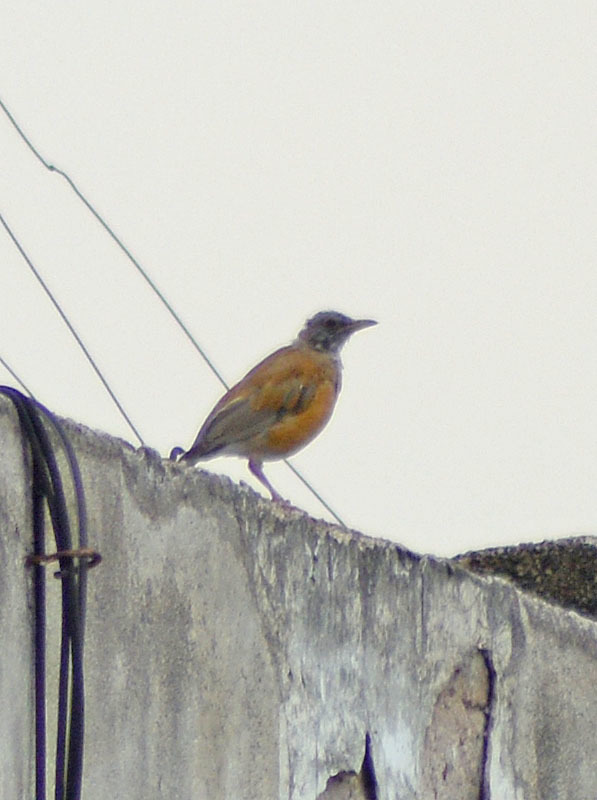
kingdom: Animalia
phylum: Chordata
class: Aves
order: Passeriformes
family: Turdidae
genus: Turdus
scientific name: Turdus rufopalliatus
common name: Rufous-backed robin
